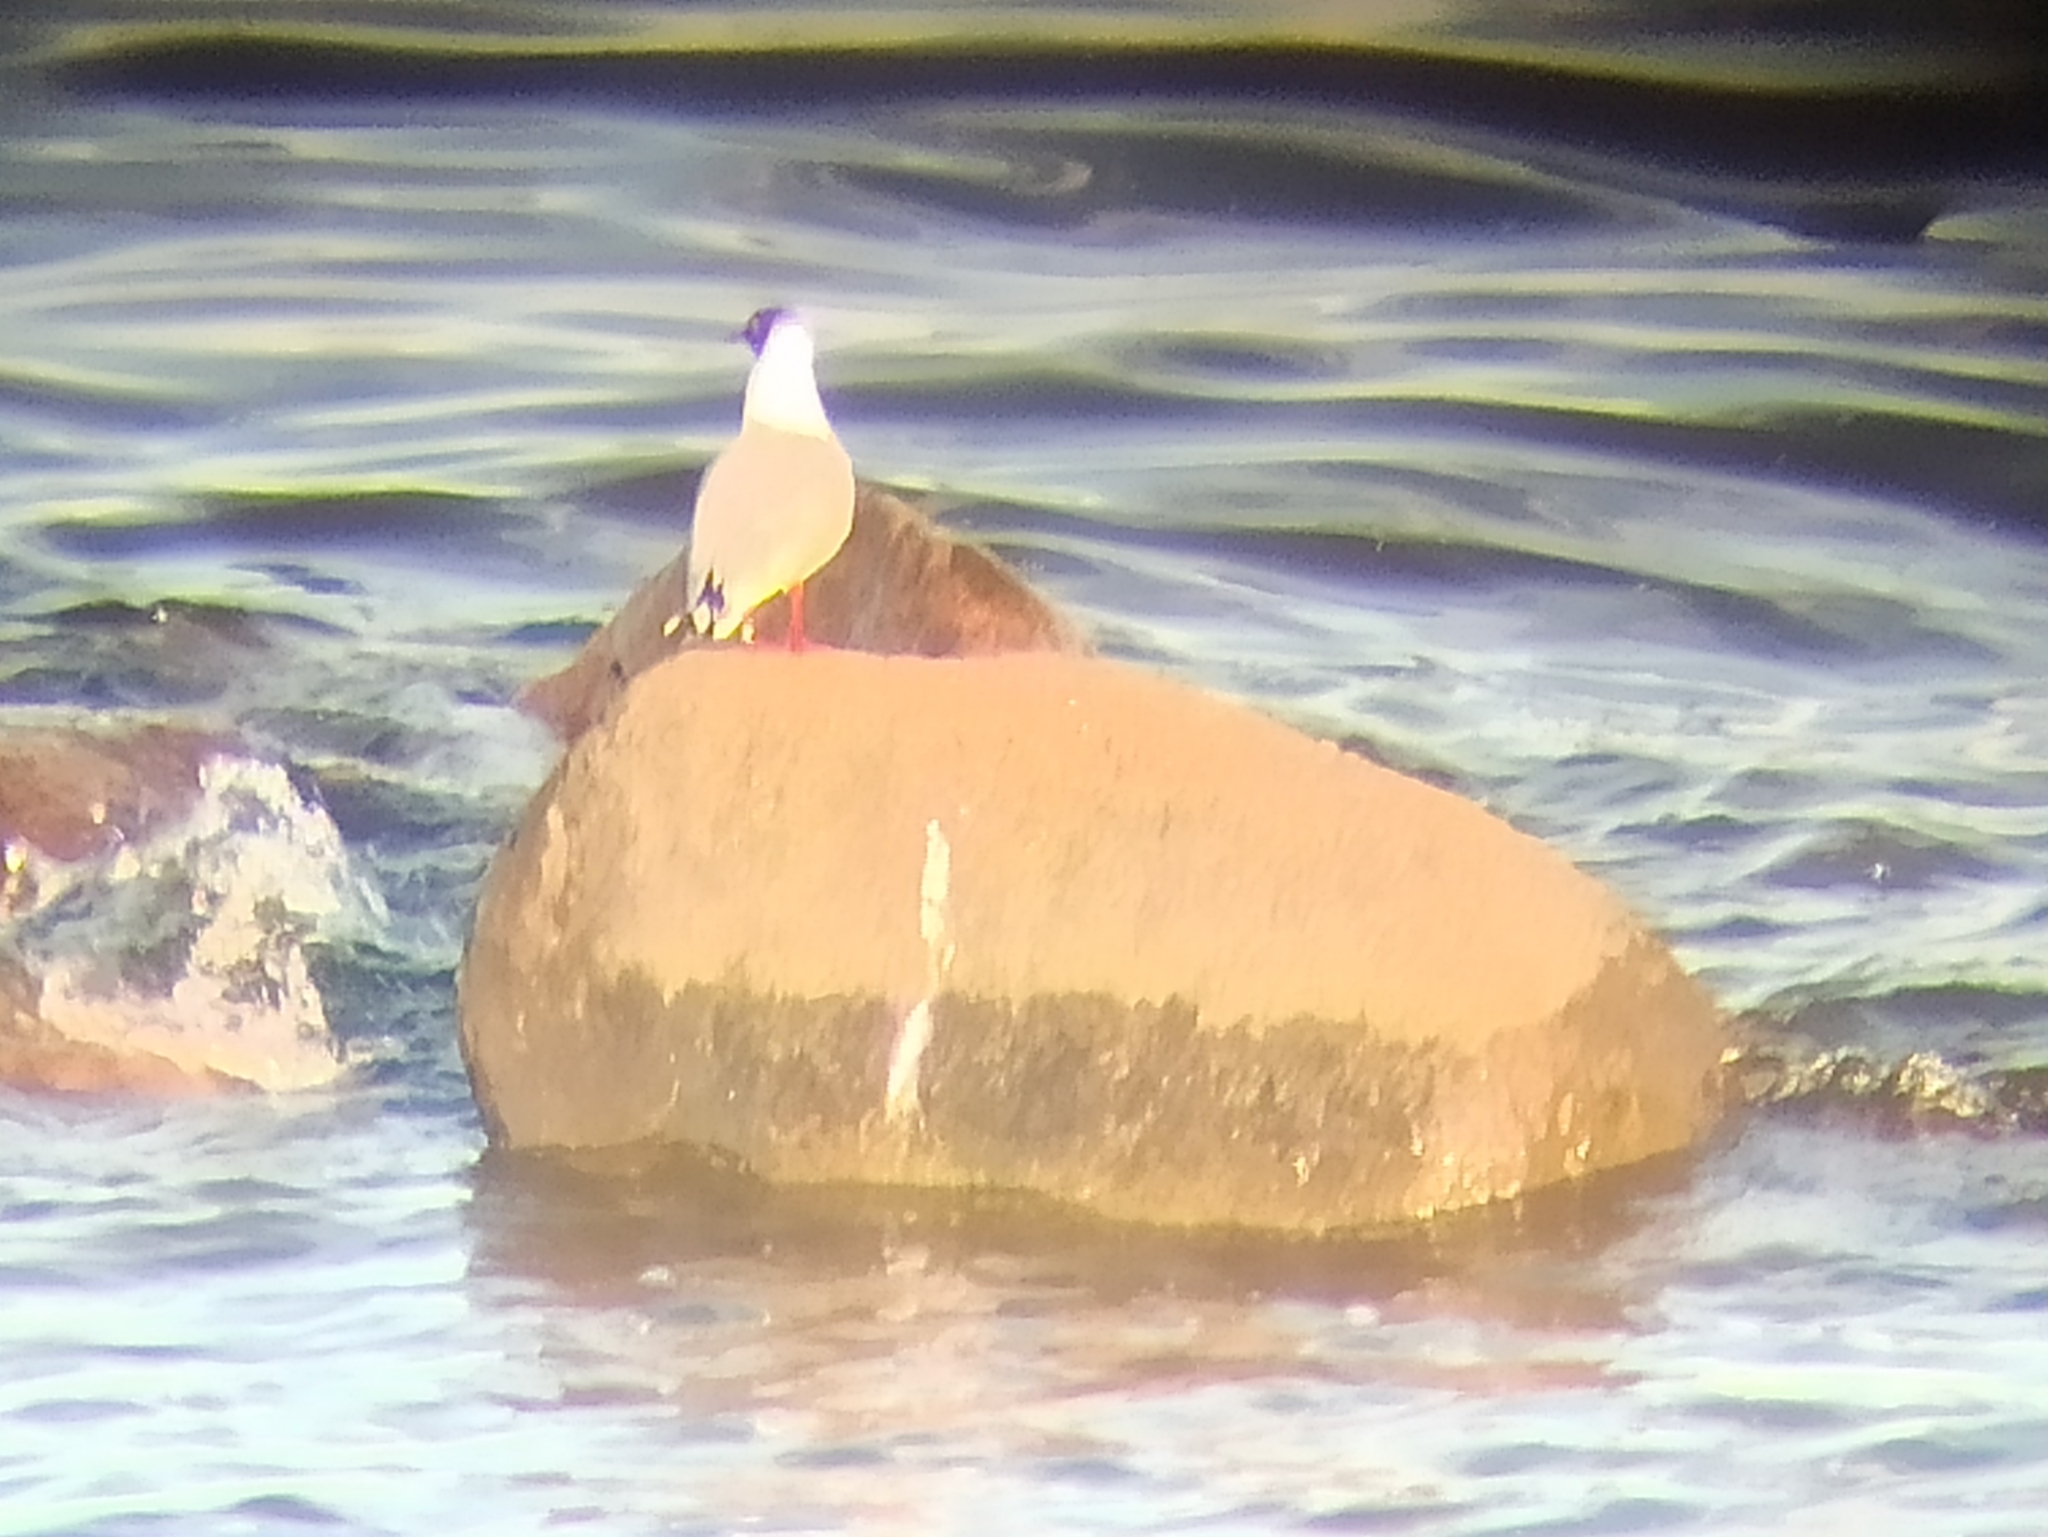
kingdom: Animalia
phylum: Chordata
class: Aves
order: Charadriiformes
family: Laridae
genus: Chroicocephalus
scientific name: Chroicocephalus ridibundus
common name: Black-headed gull
